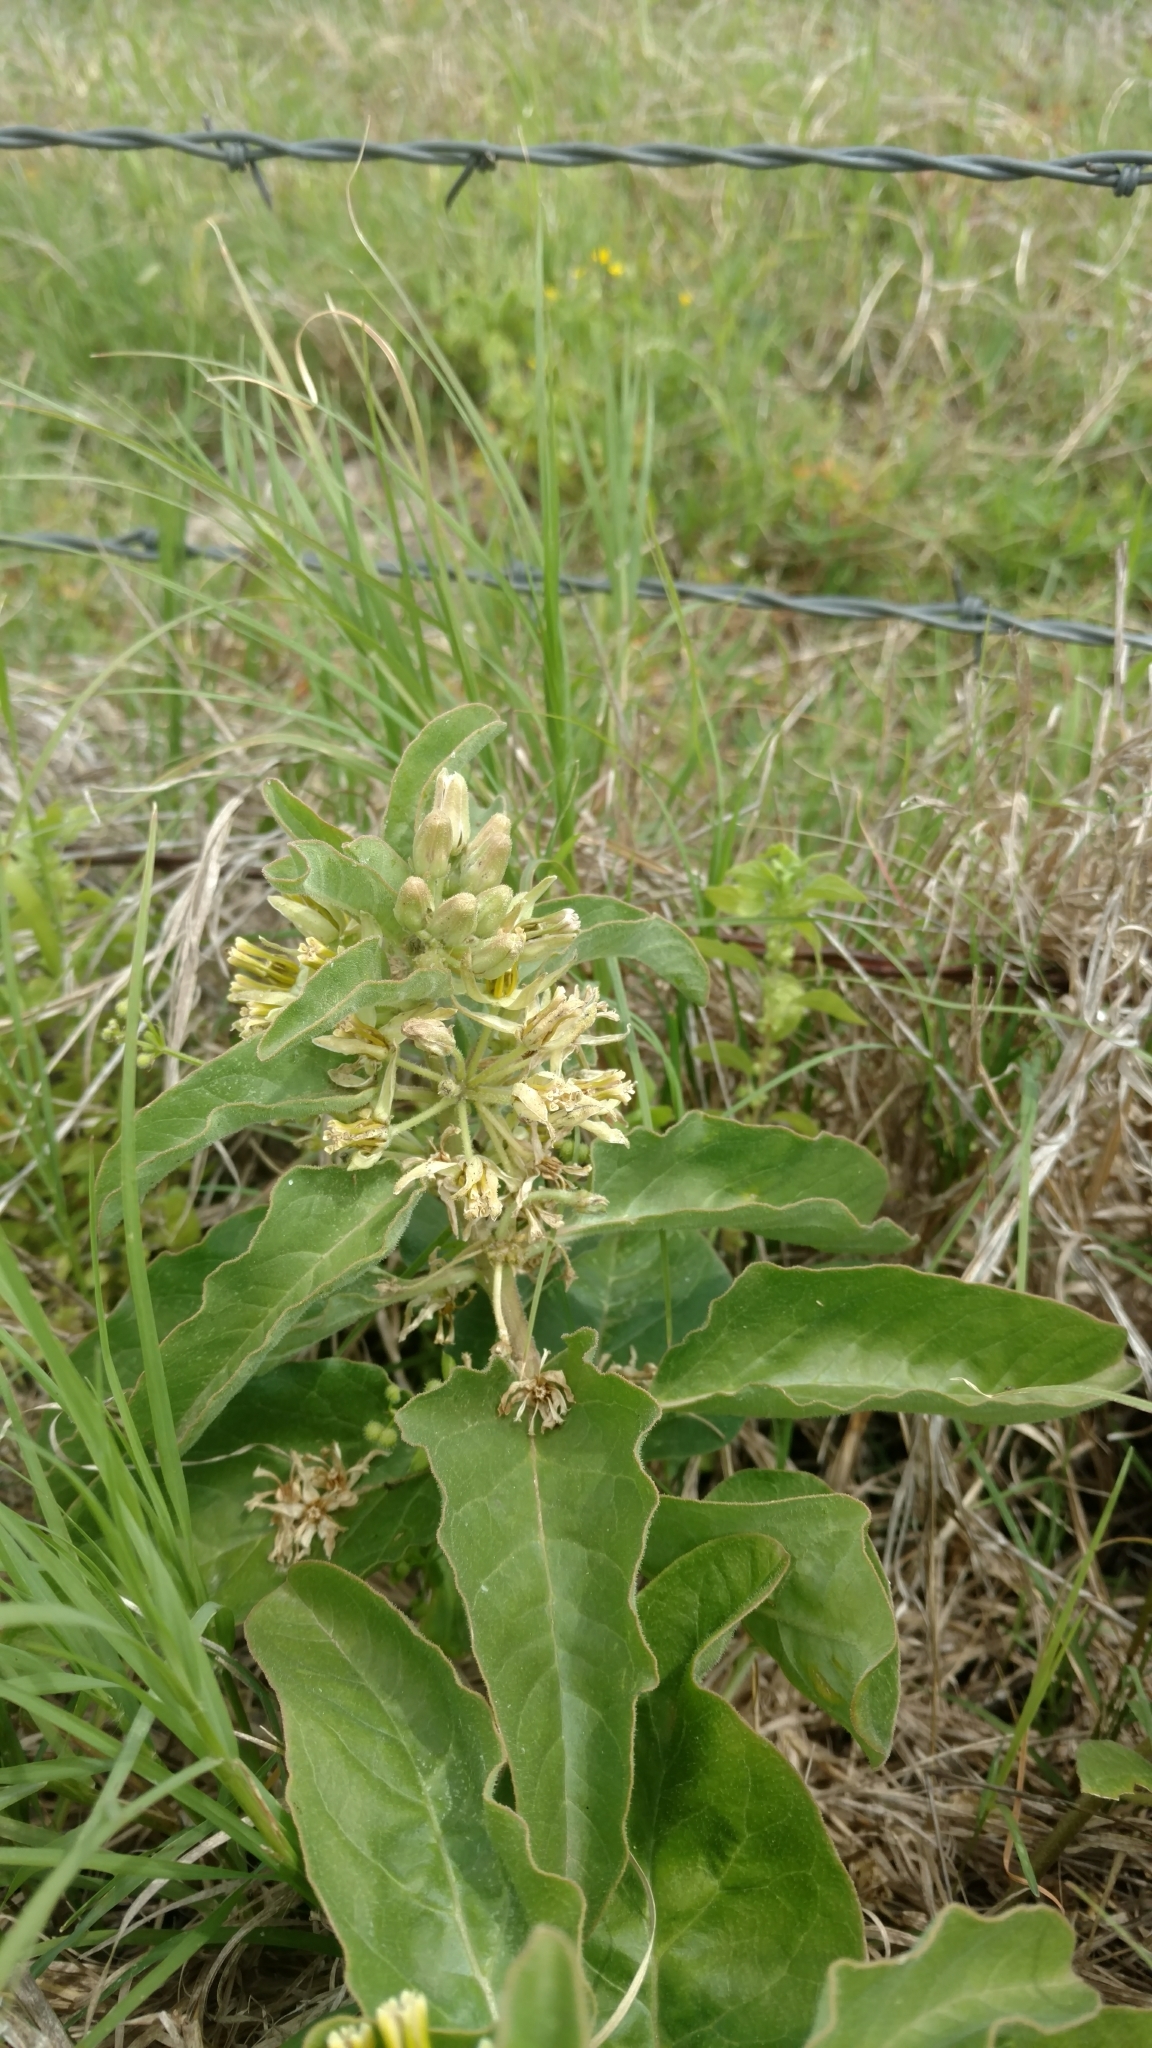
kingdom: Plantae
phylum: Tracheophyta
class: Magnoliopsida
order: Gentianales
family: Apocynaceae
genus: Asclepias
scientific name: Asclepias oenotheroides
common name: Zizotes milkweed
